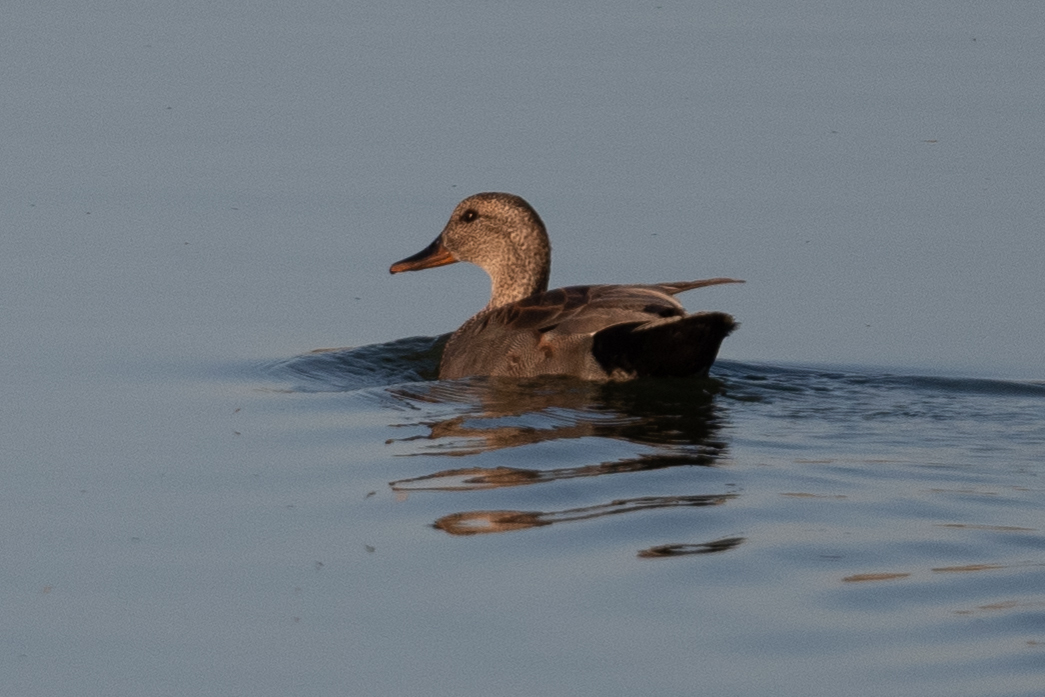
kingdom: Animalia
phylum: Chordata
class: Aves
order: Anseriformes
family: Anatidae
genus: Mareca
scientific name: Mareca strepera
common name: Gadwall
